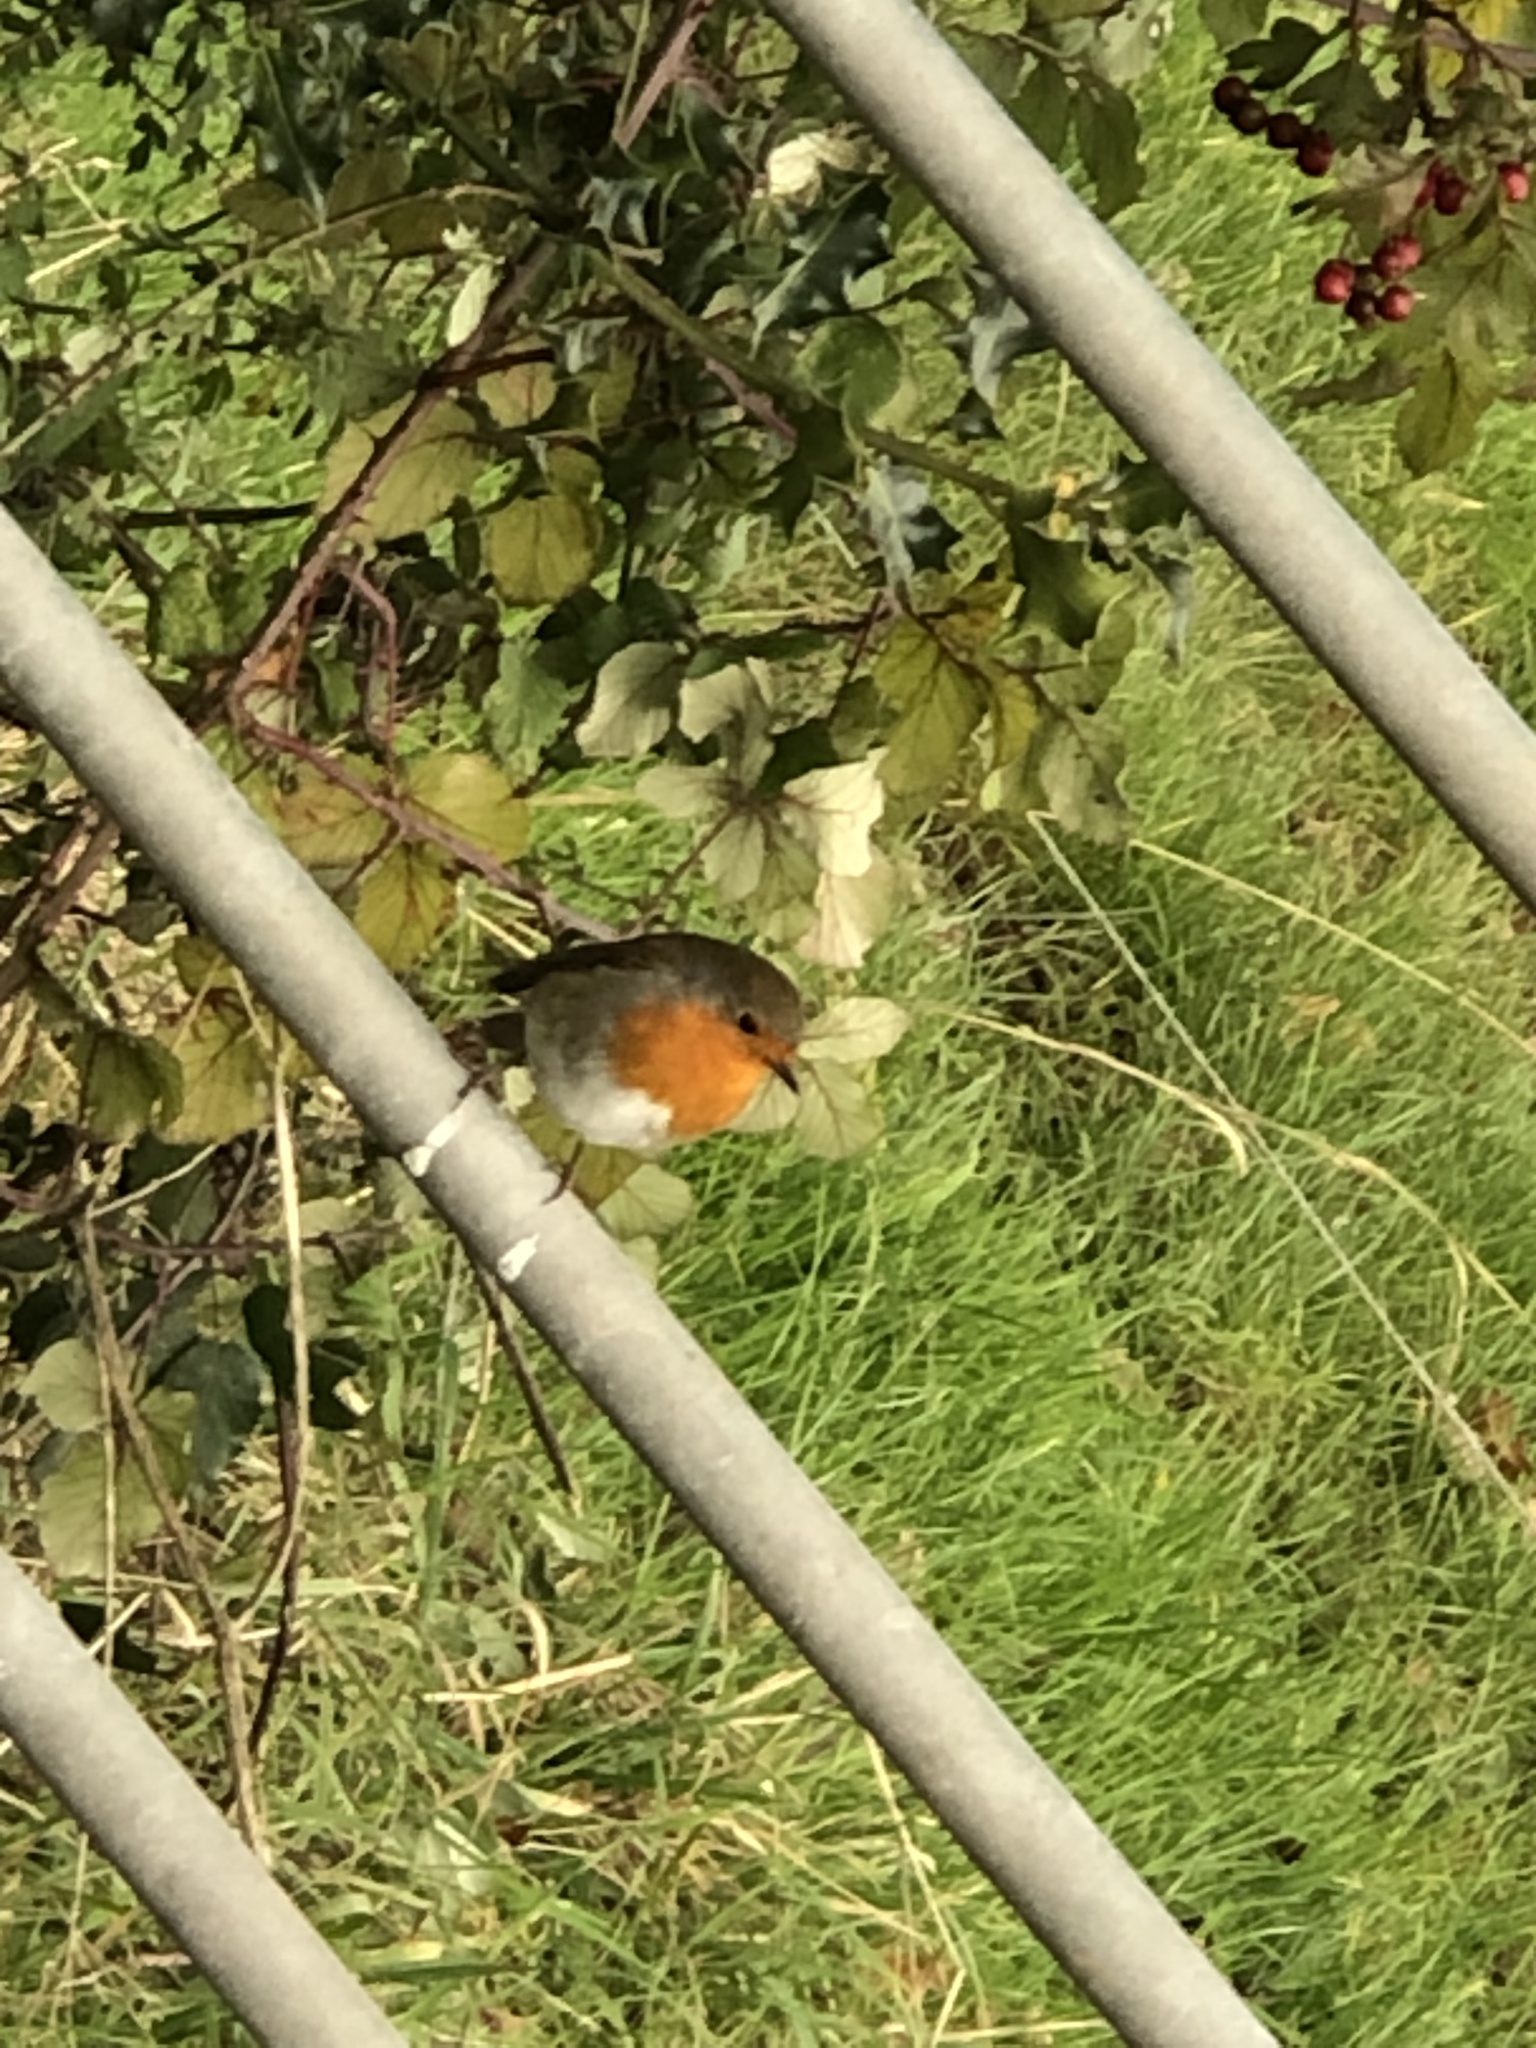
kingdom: Animalia
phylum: Chordata
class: Aves
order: Passeriformes
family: Muscicapidae
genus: Erithacus
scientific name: Erithacus rubecula
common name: European robin
